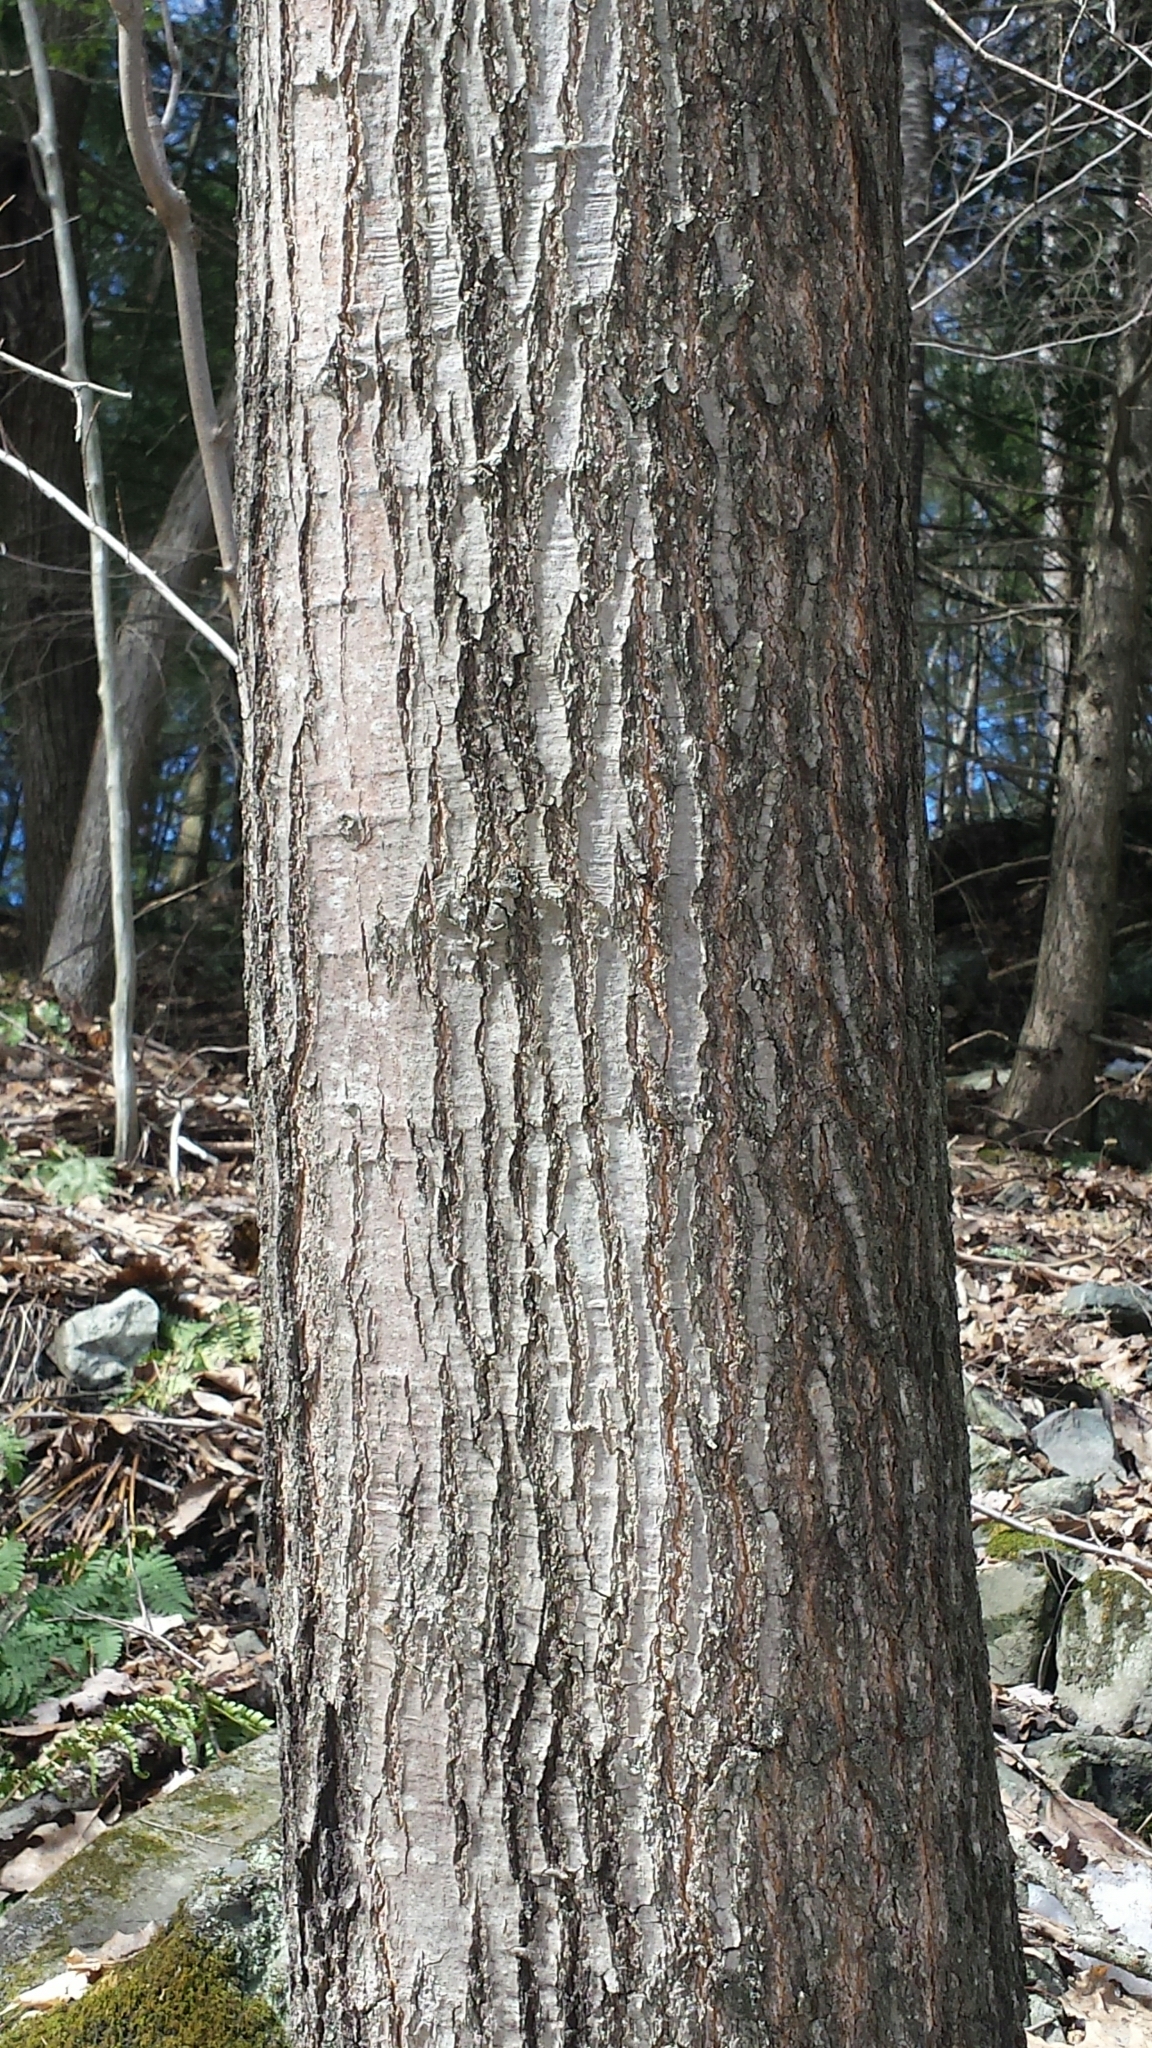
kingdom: Plantae
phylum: Tracheophyta
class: Magnoliopsida
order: Fagales
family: Fagaceae
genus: Quercus
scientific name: Quercus rubra
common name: Red oak
